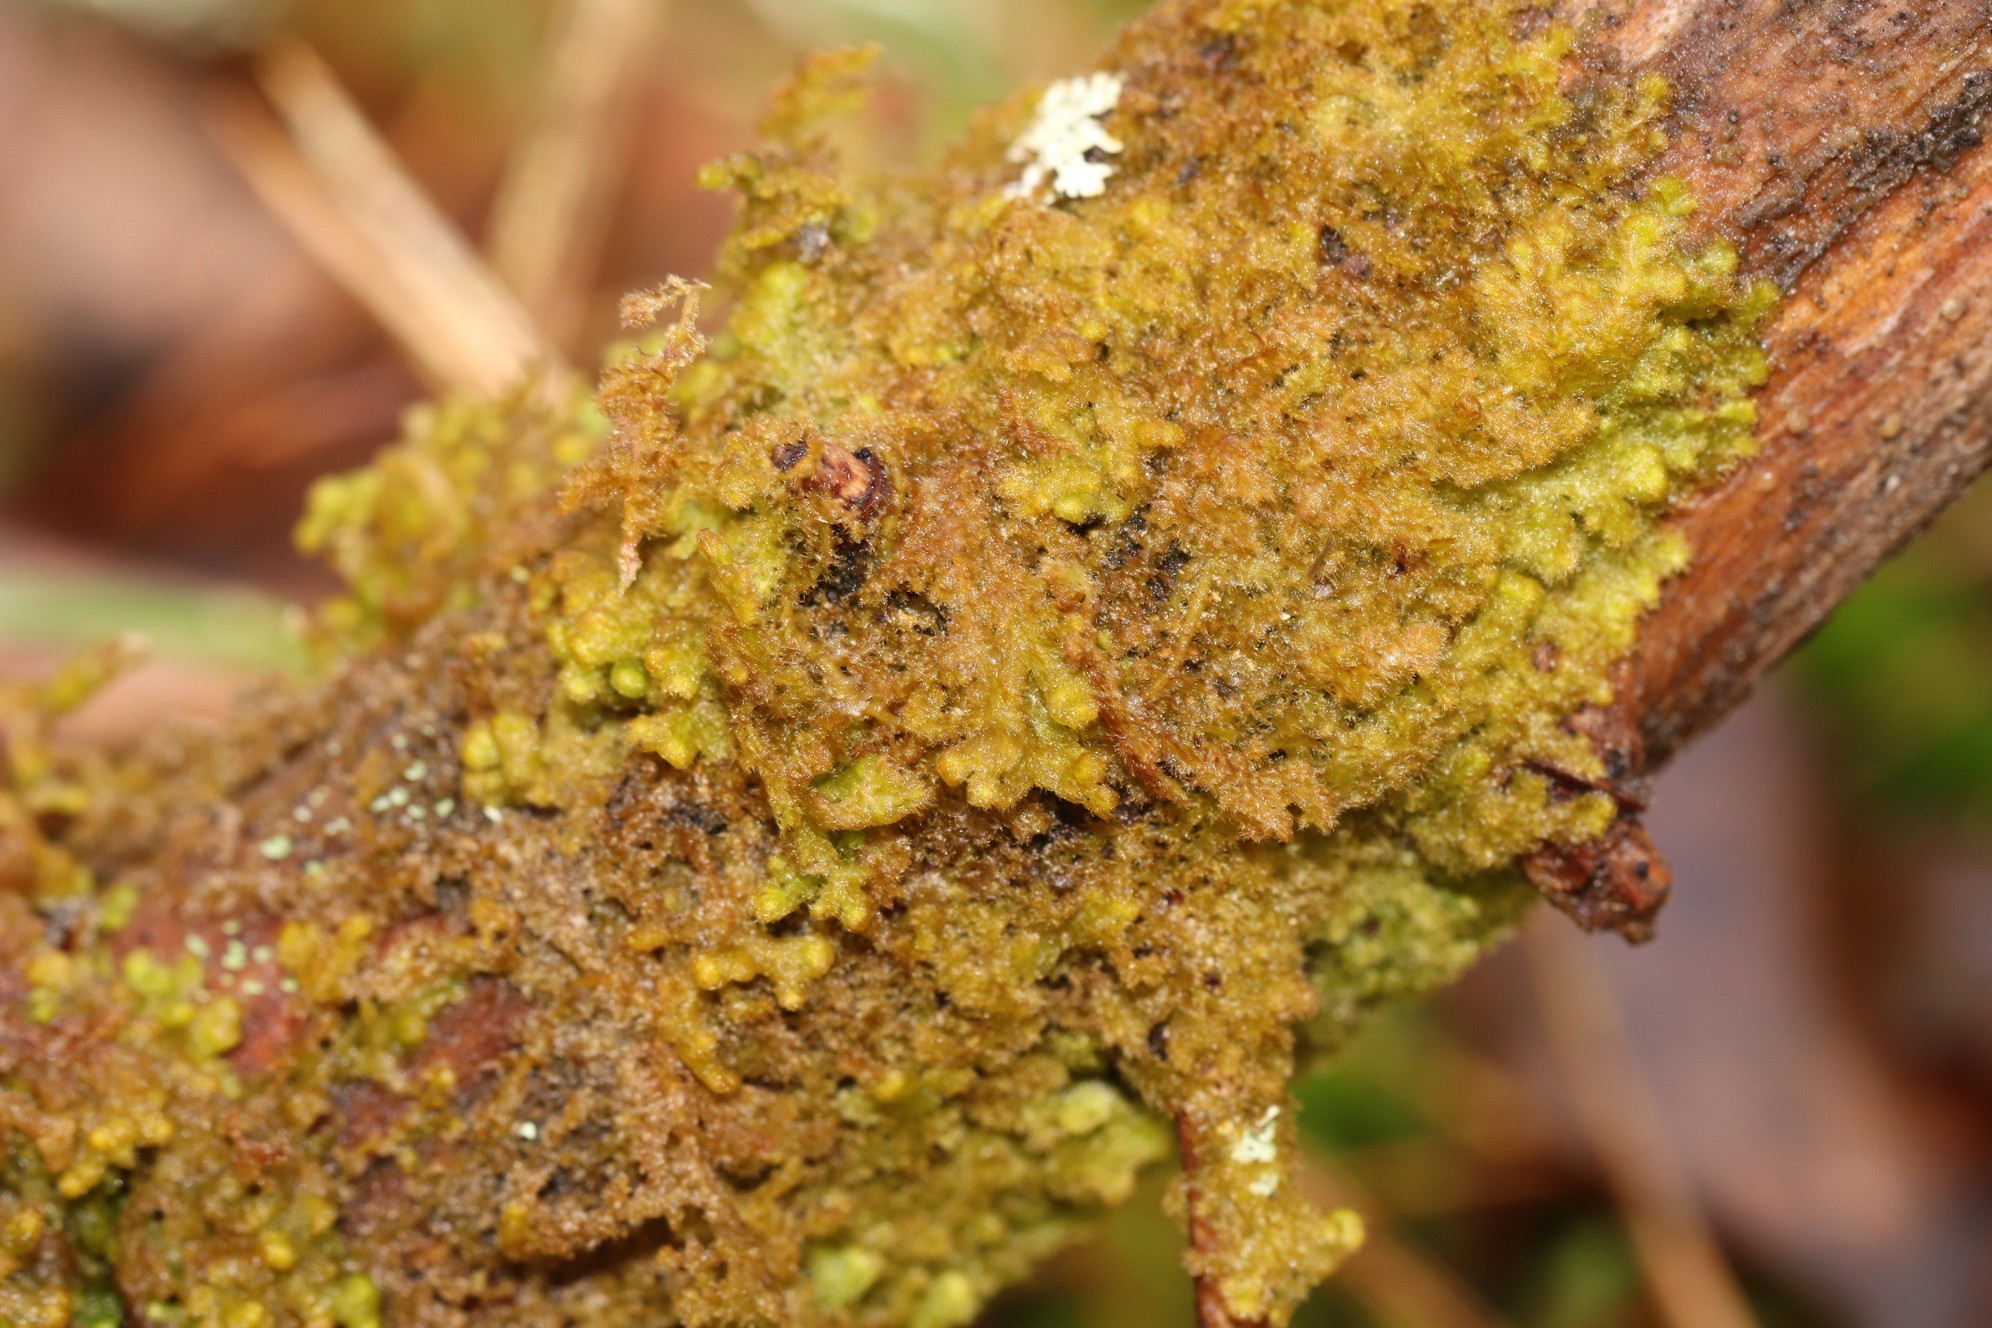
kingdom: Plantae
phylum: Marchantiophyta
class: Jungermanniopsida
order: Ptilidiales
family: Ptilidiaceae
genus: Ptilidium
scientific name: Ptilidium pulcherrimum
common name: Tree fringewort
